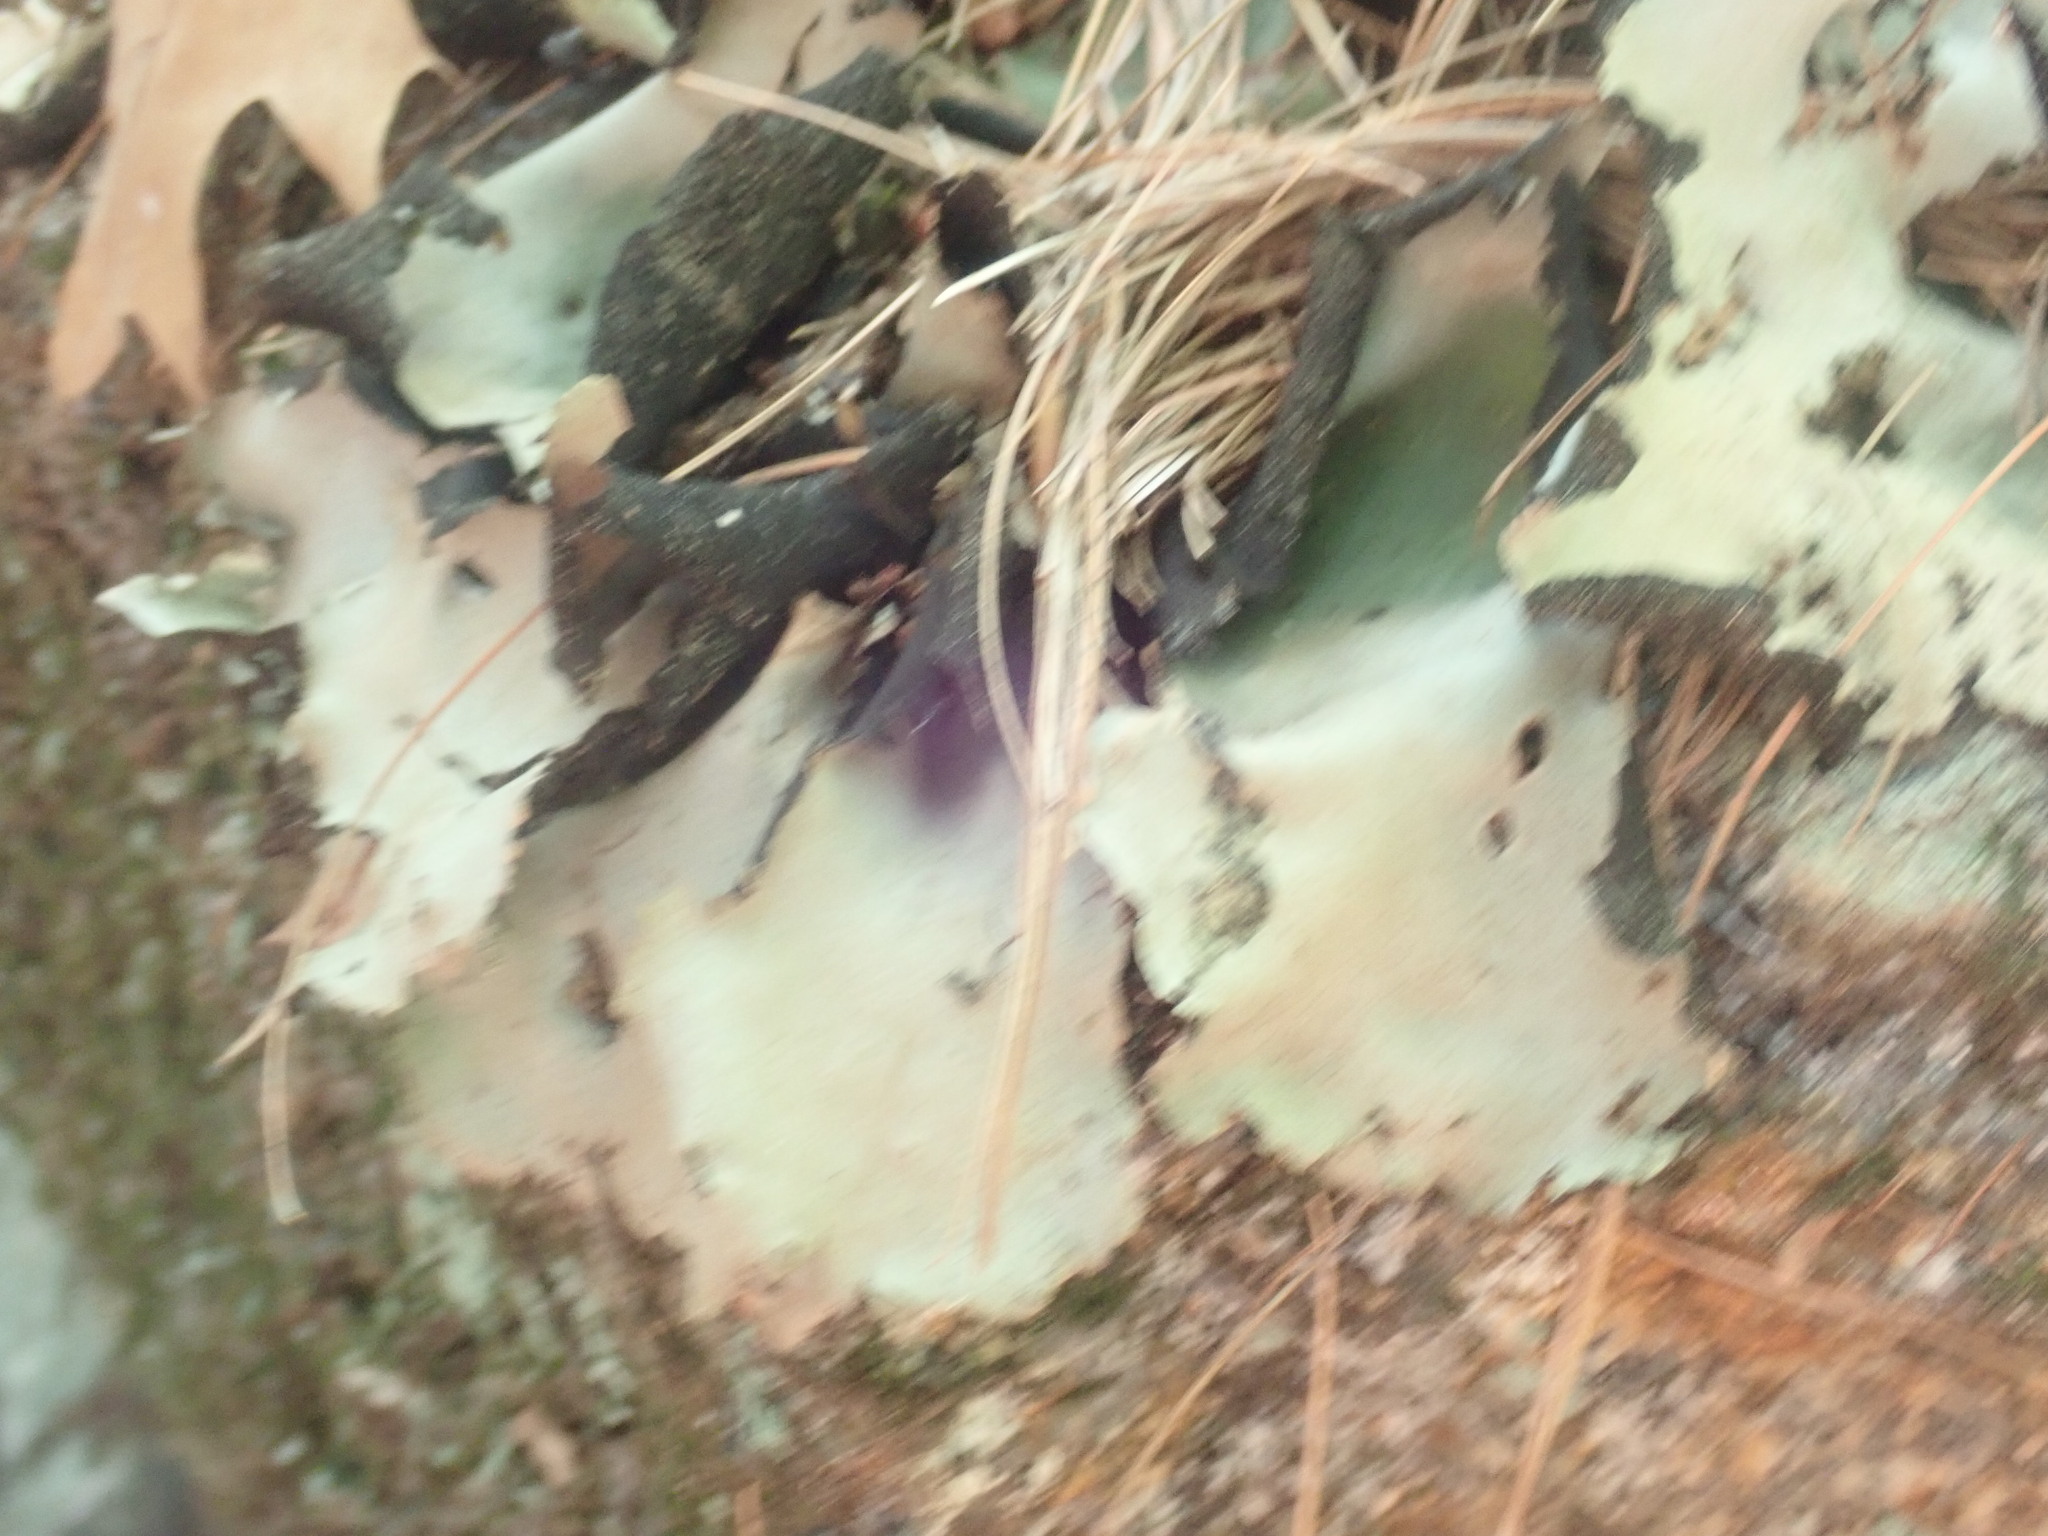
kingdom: Fungi
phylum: Ascomycota
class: Lecanoromycetes
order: Umbilicariales
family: Umbilicariaceae
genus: Umbilicaria
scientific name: Umbilicaria mammulata
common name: Smooth rock tripe
